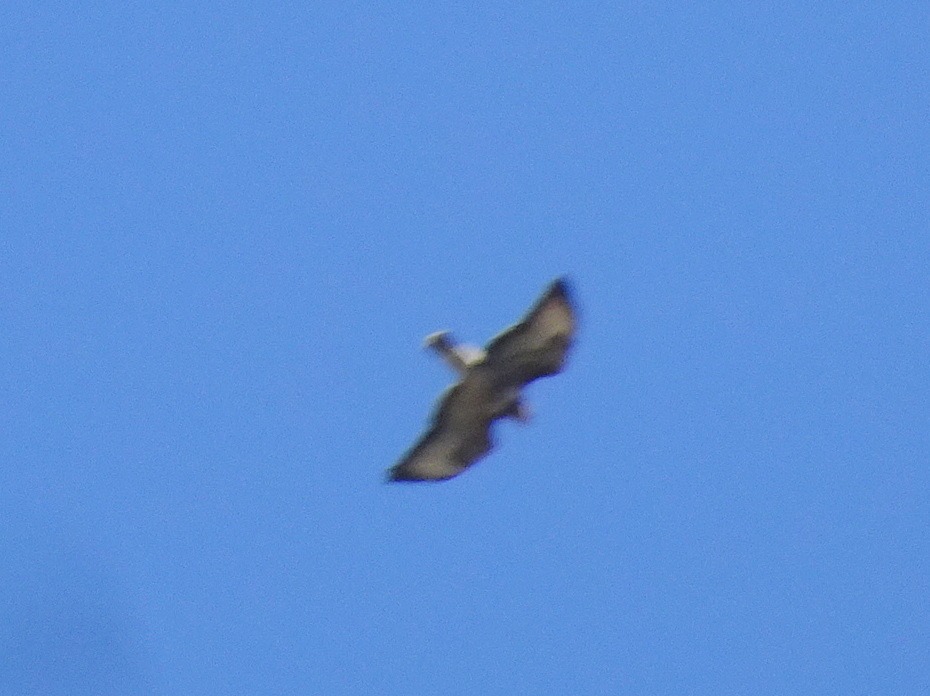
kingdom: Animalia
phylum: Chordata
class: Aves
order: Accipitriformes
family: Accipitridae
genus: Buteo
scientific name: Buteo buteo
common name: Common buzzard
